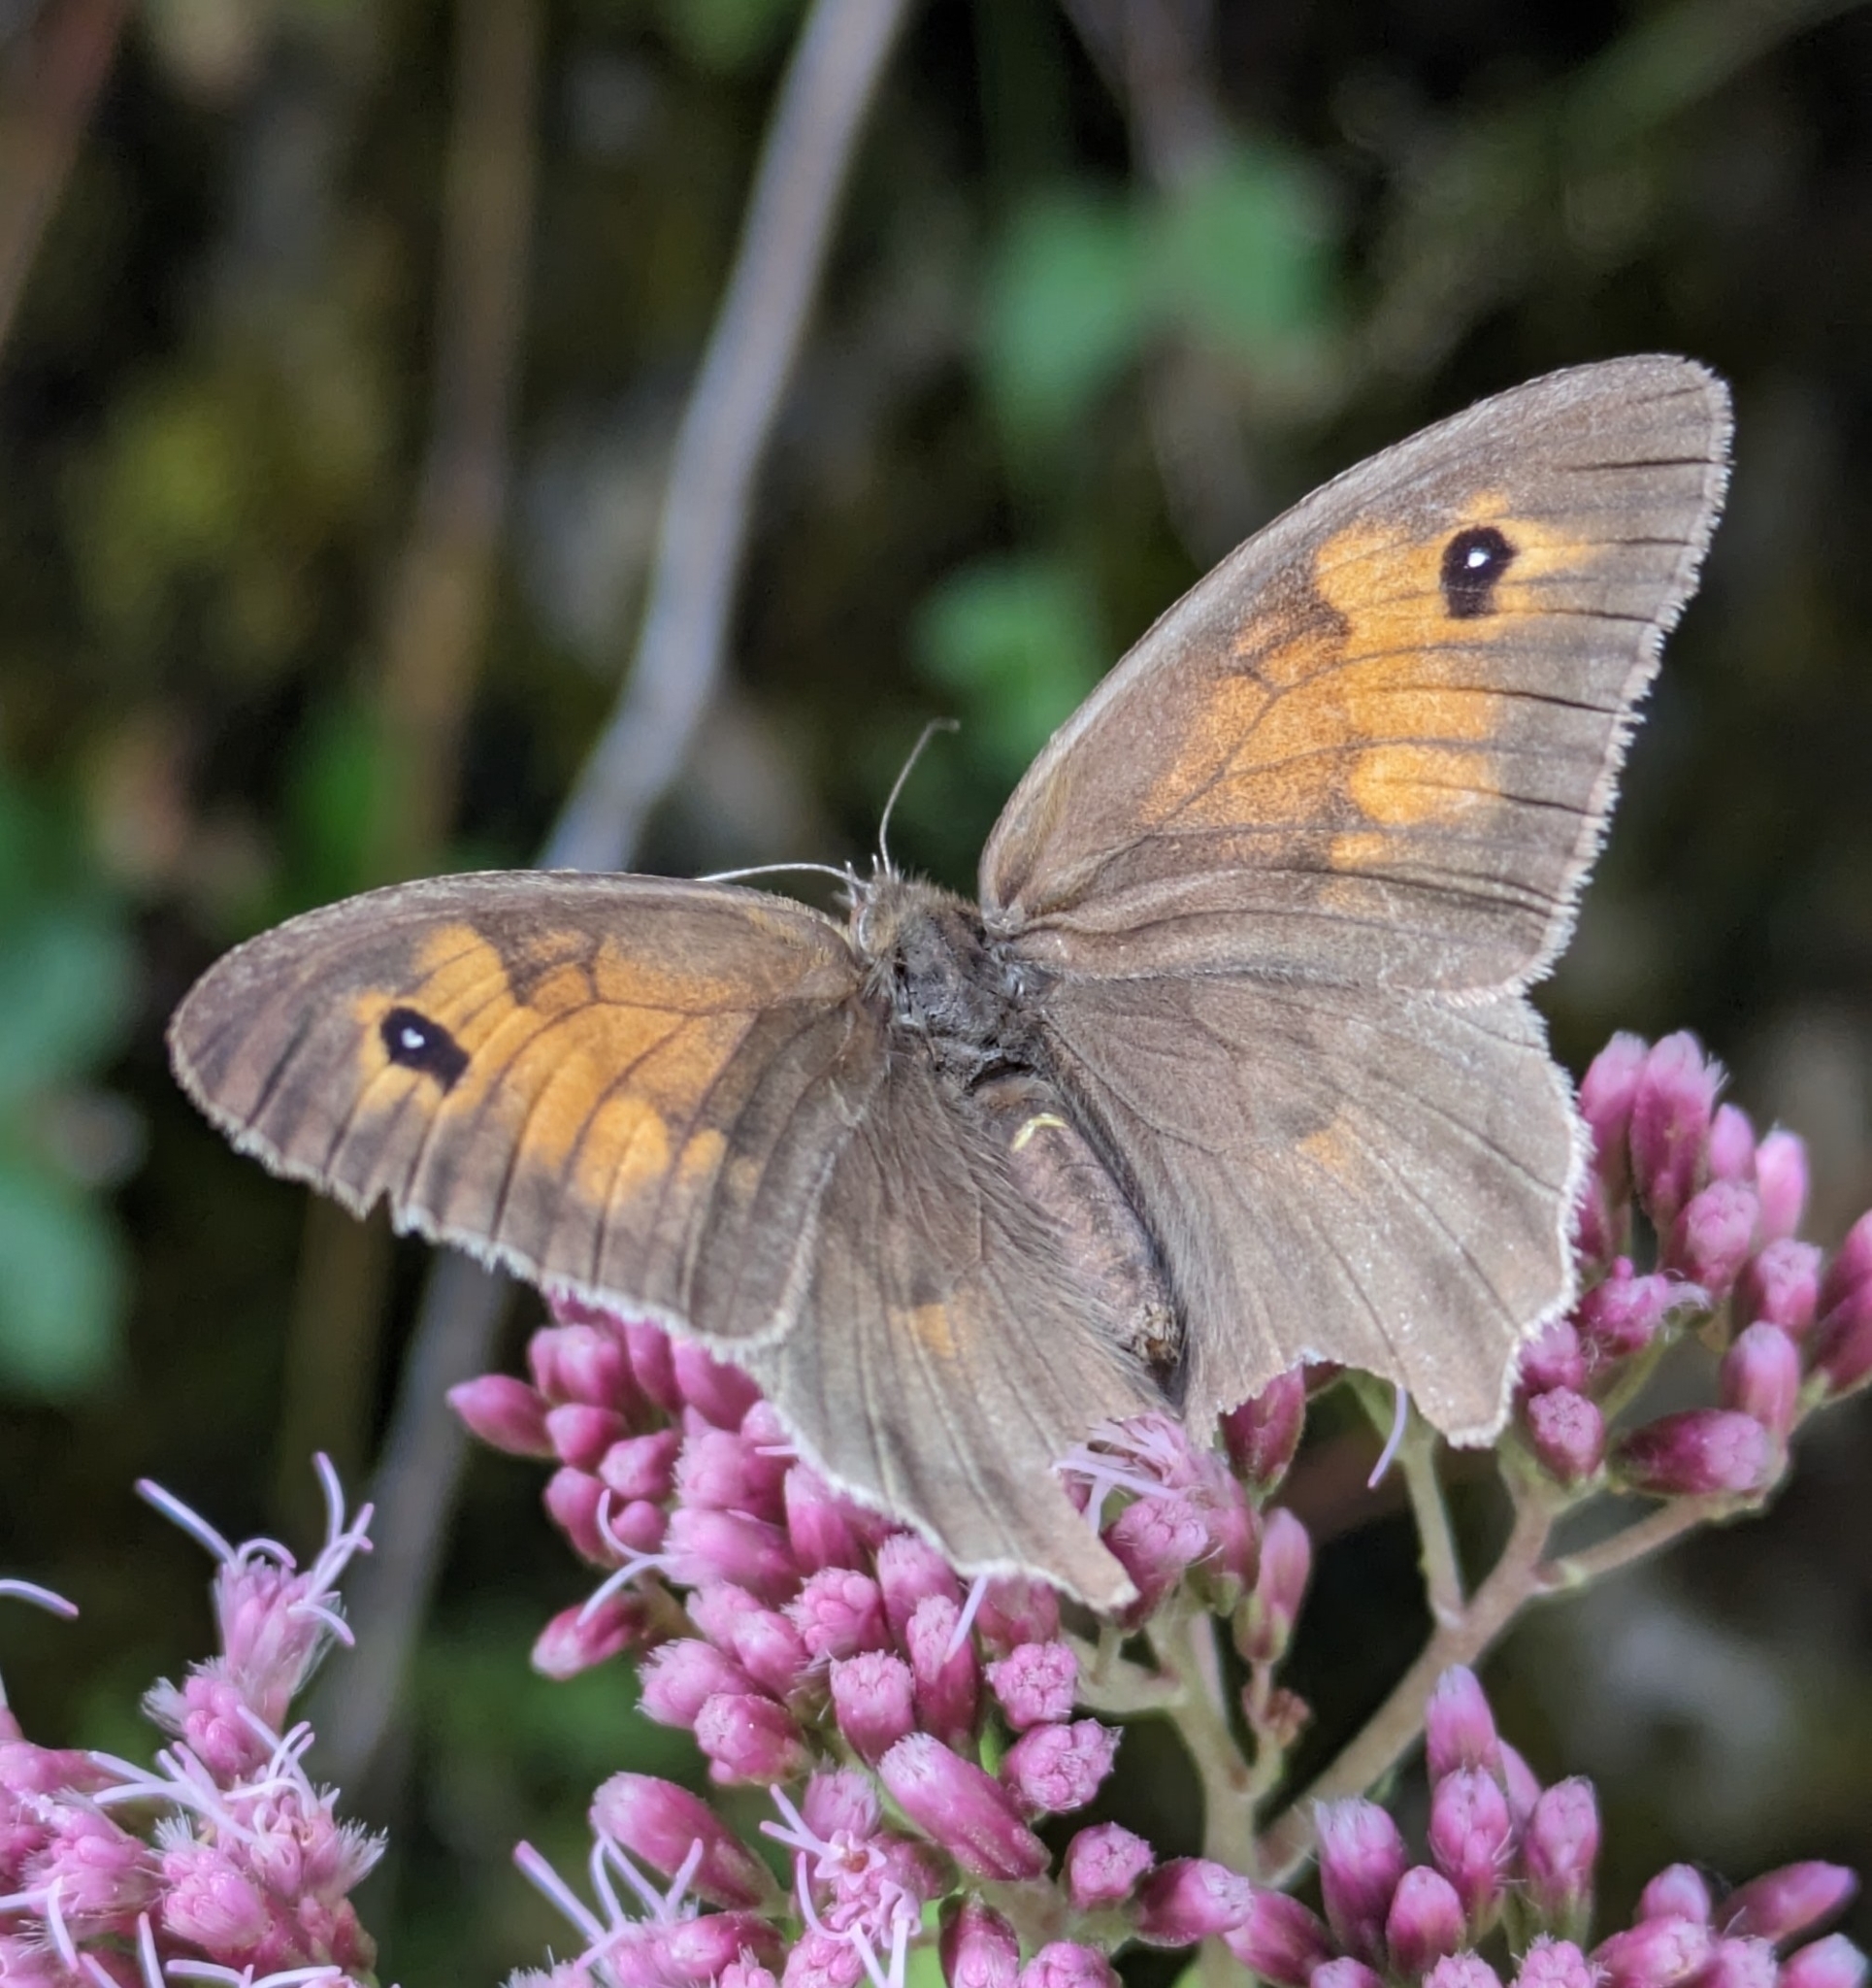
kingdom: Animalia
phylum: Arthropoda
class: Insecta
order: Lepidoptera
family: Nymphalidae
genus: Maniola
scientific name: Maniola jurtina
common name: Meadow brown
